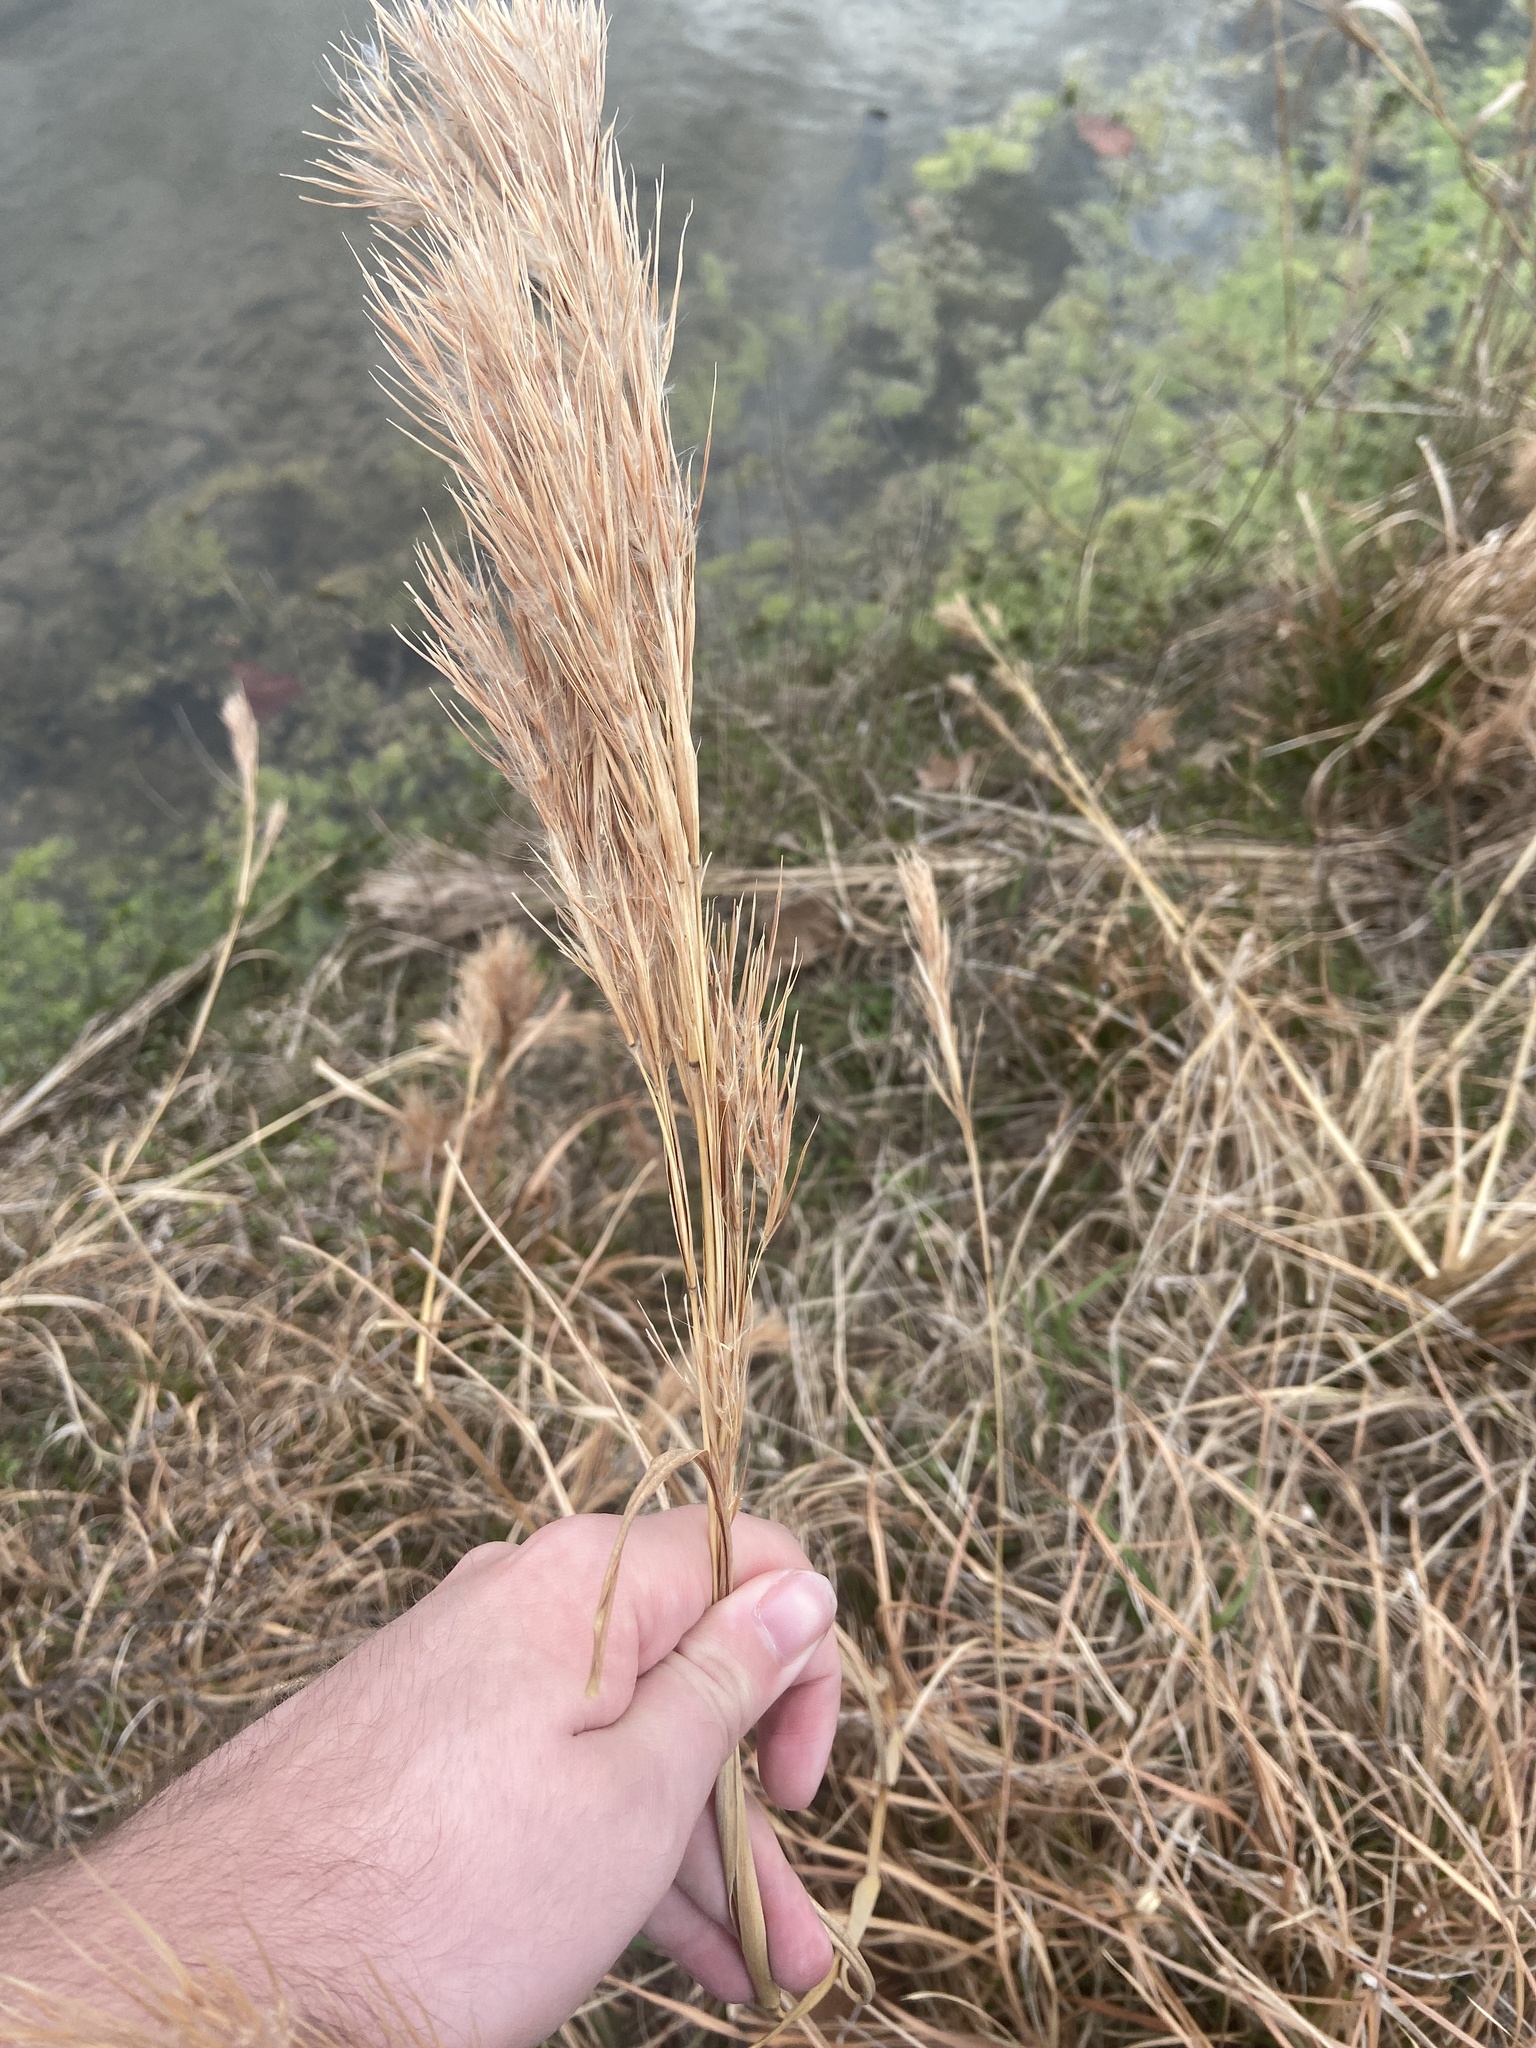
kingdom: Plantae
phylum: Tracheophyta
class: Liliopsida
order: Poales
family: Poaceae
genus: Andropogon
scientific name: Andropogon tenuispatheus
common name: Bushy bluestem
